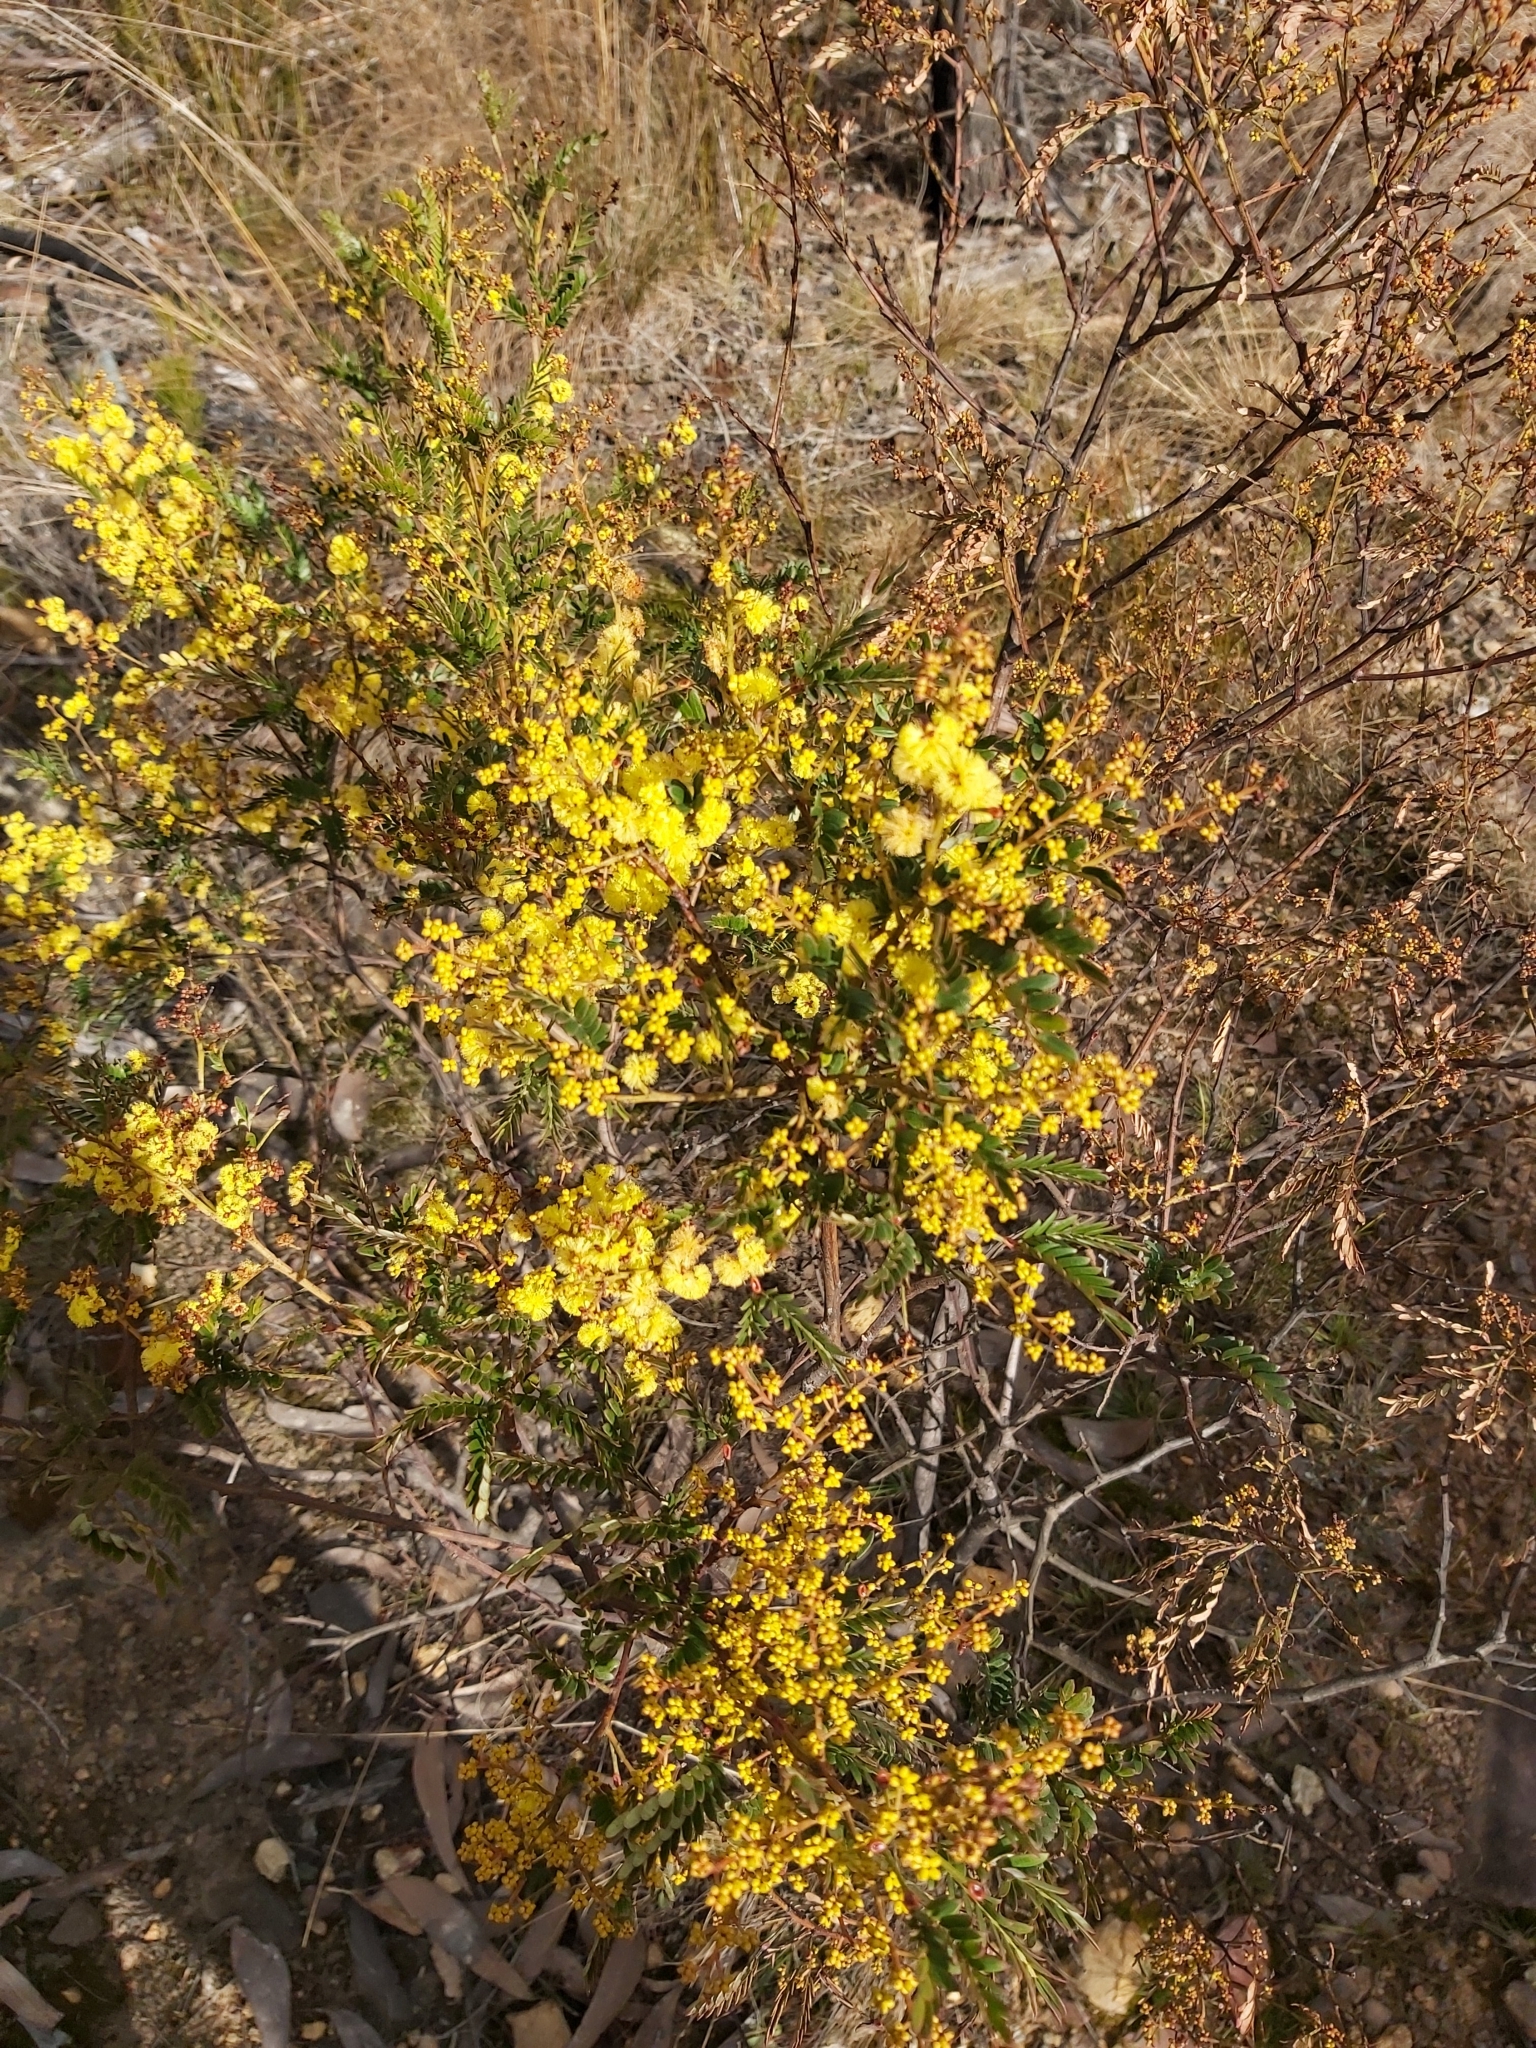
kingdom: Plantae
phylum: Tracheophyta
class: Magnoliopsida
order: Fabales
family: Fabaceae
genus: Acacia
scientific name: Acacia terminalis
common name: Cedar wattle
